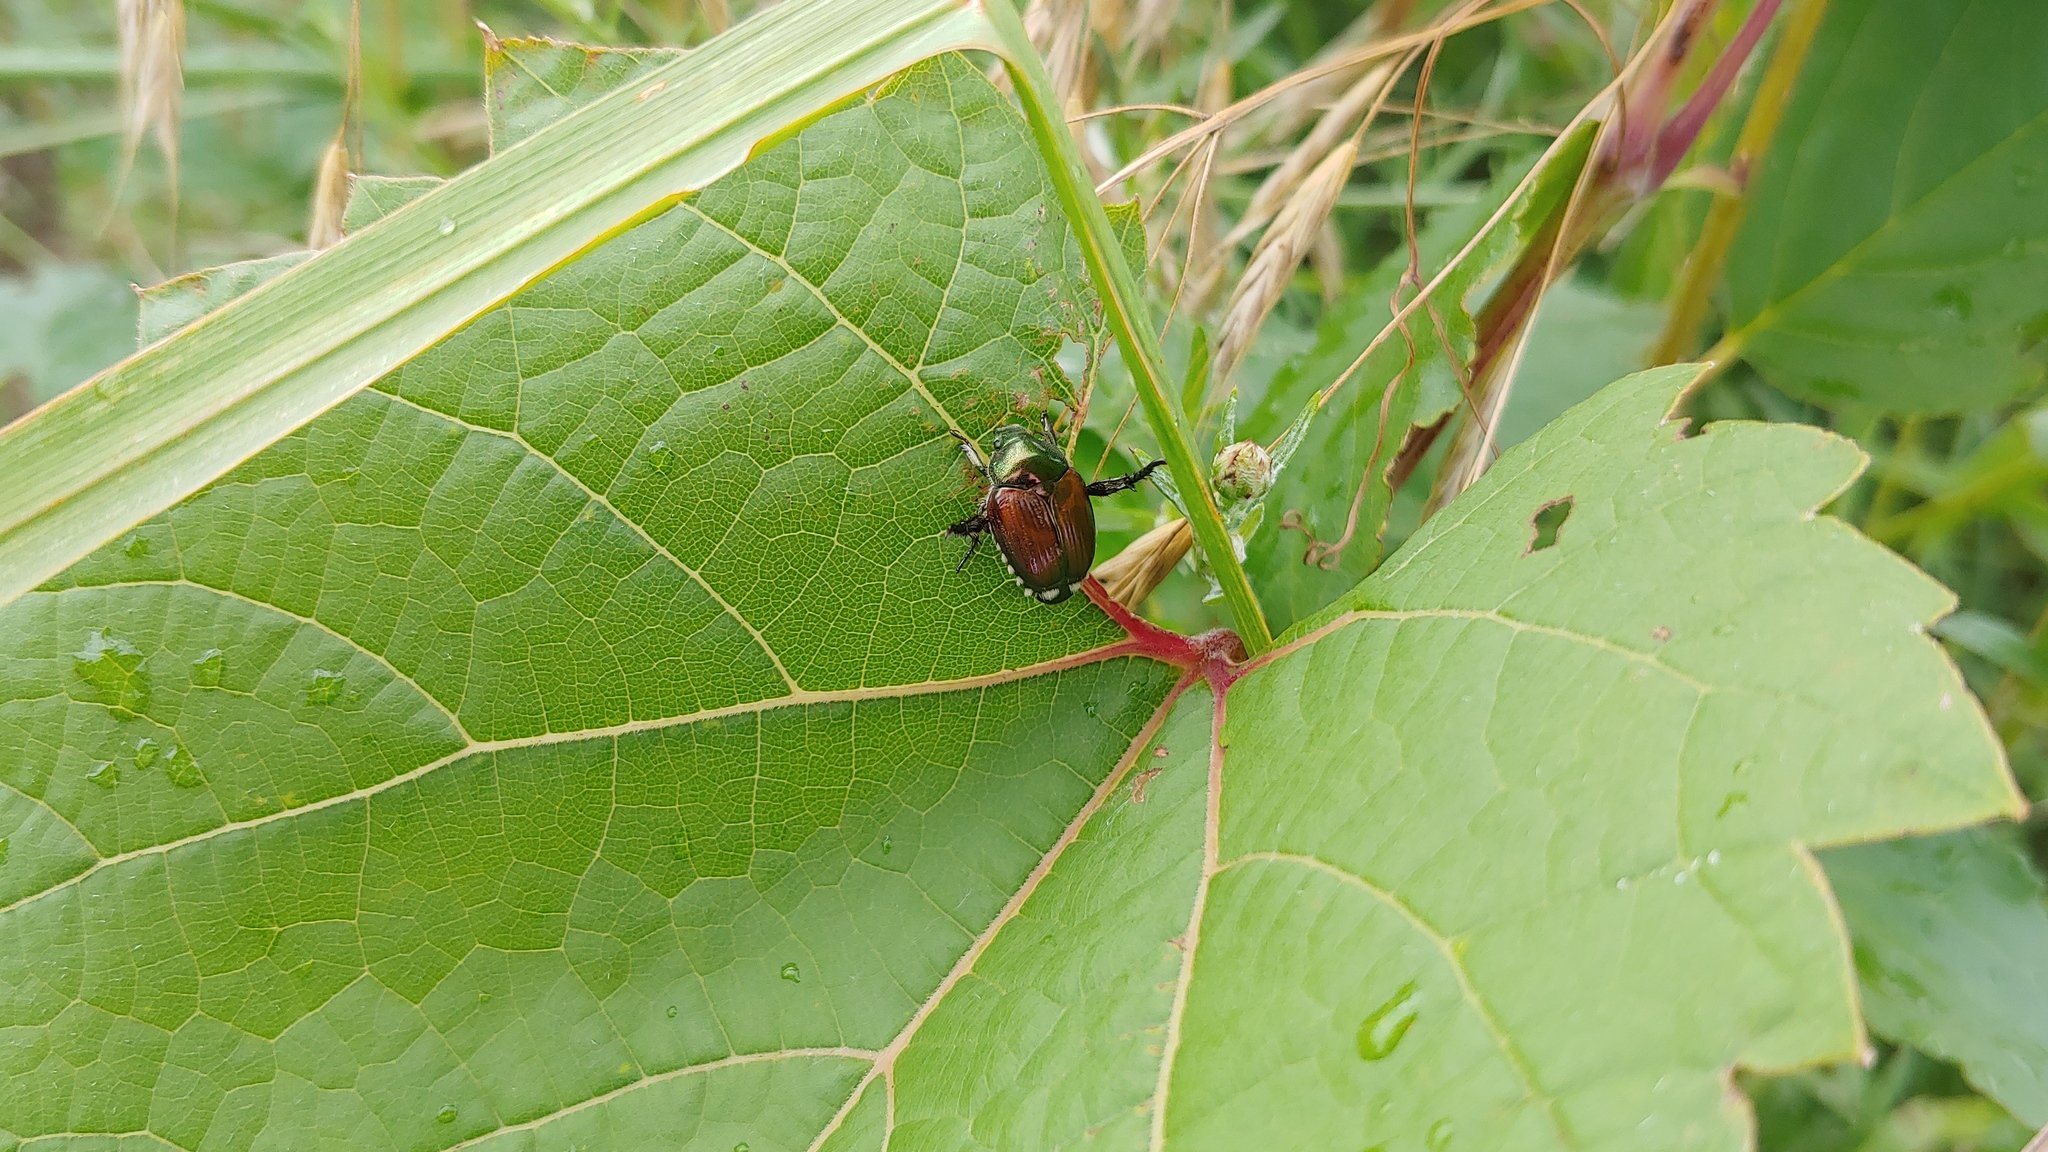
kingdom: Animalia
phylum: Arthropoda
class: Insecta
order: Coleoptera
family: Scarabaeidae
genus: Popillia
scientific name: Popillia japonica
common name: Japanese beetle
